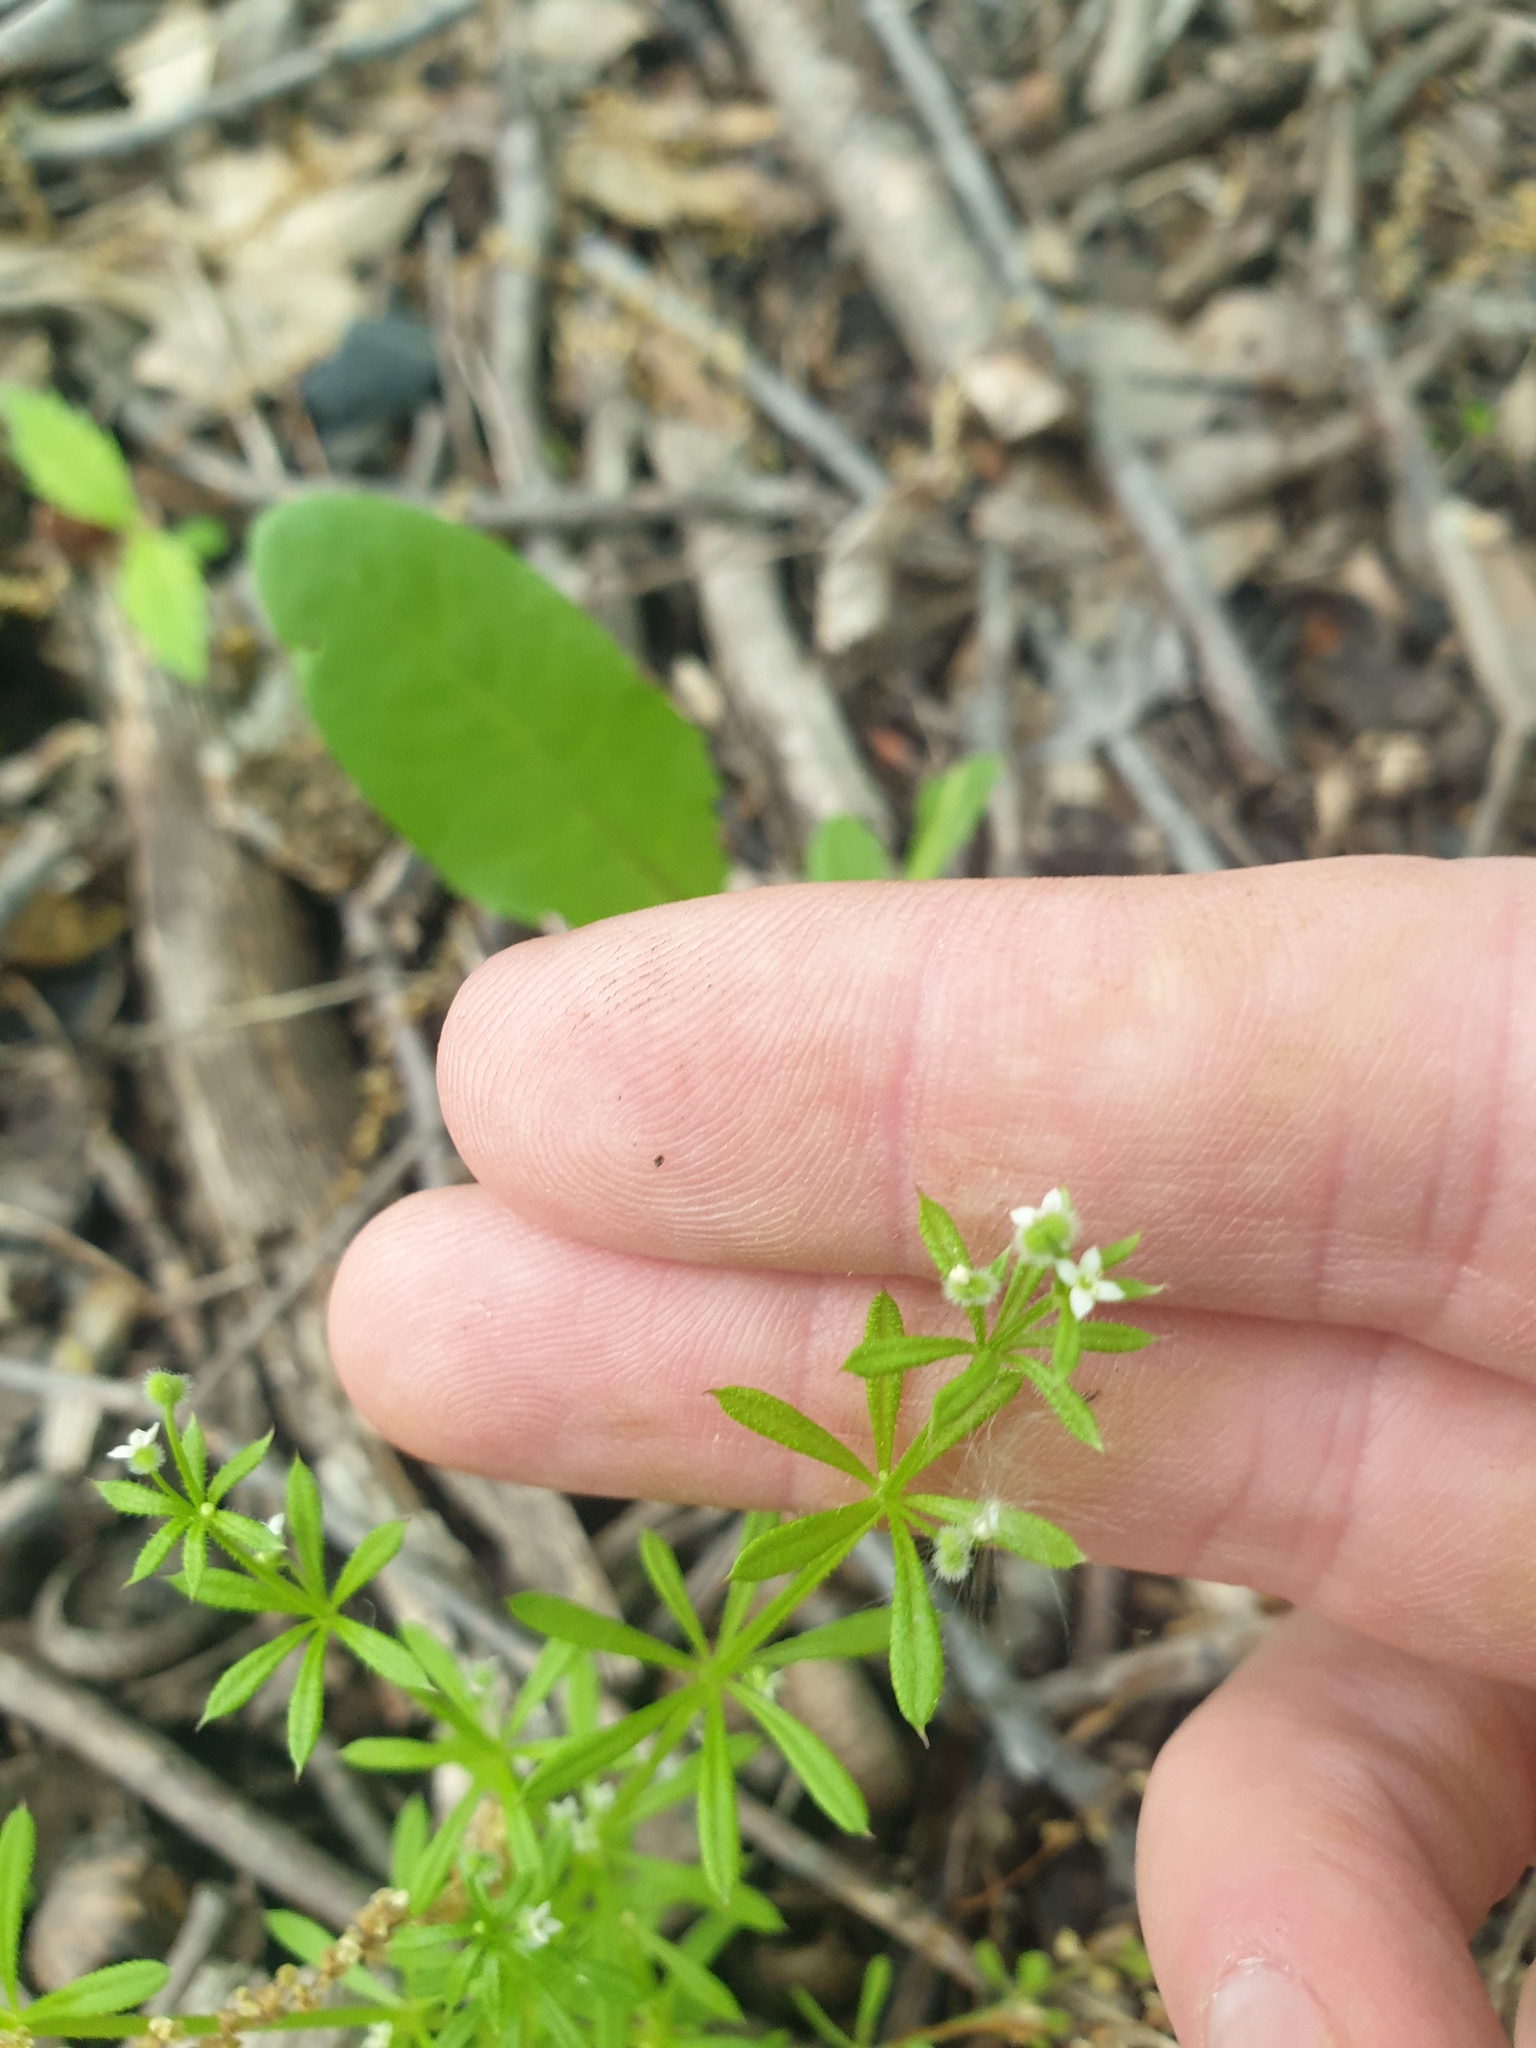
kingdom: Plantae
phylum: Tracheophyta
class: Magnoliopsida
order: Gentianales
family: Rubiaceae
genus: Galium
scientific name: Galium aparine
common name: Cleavers
